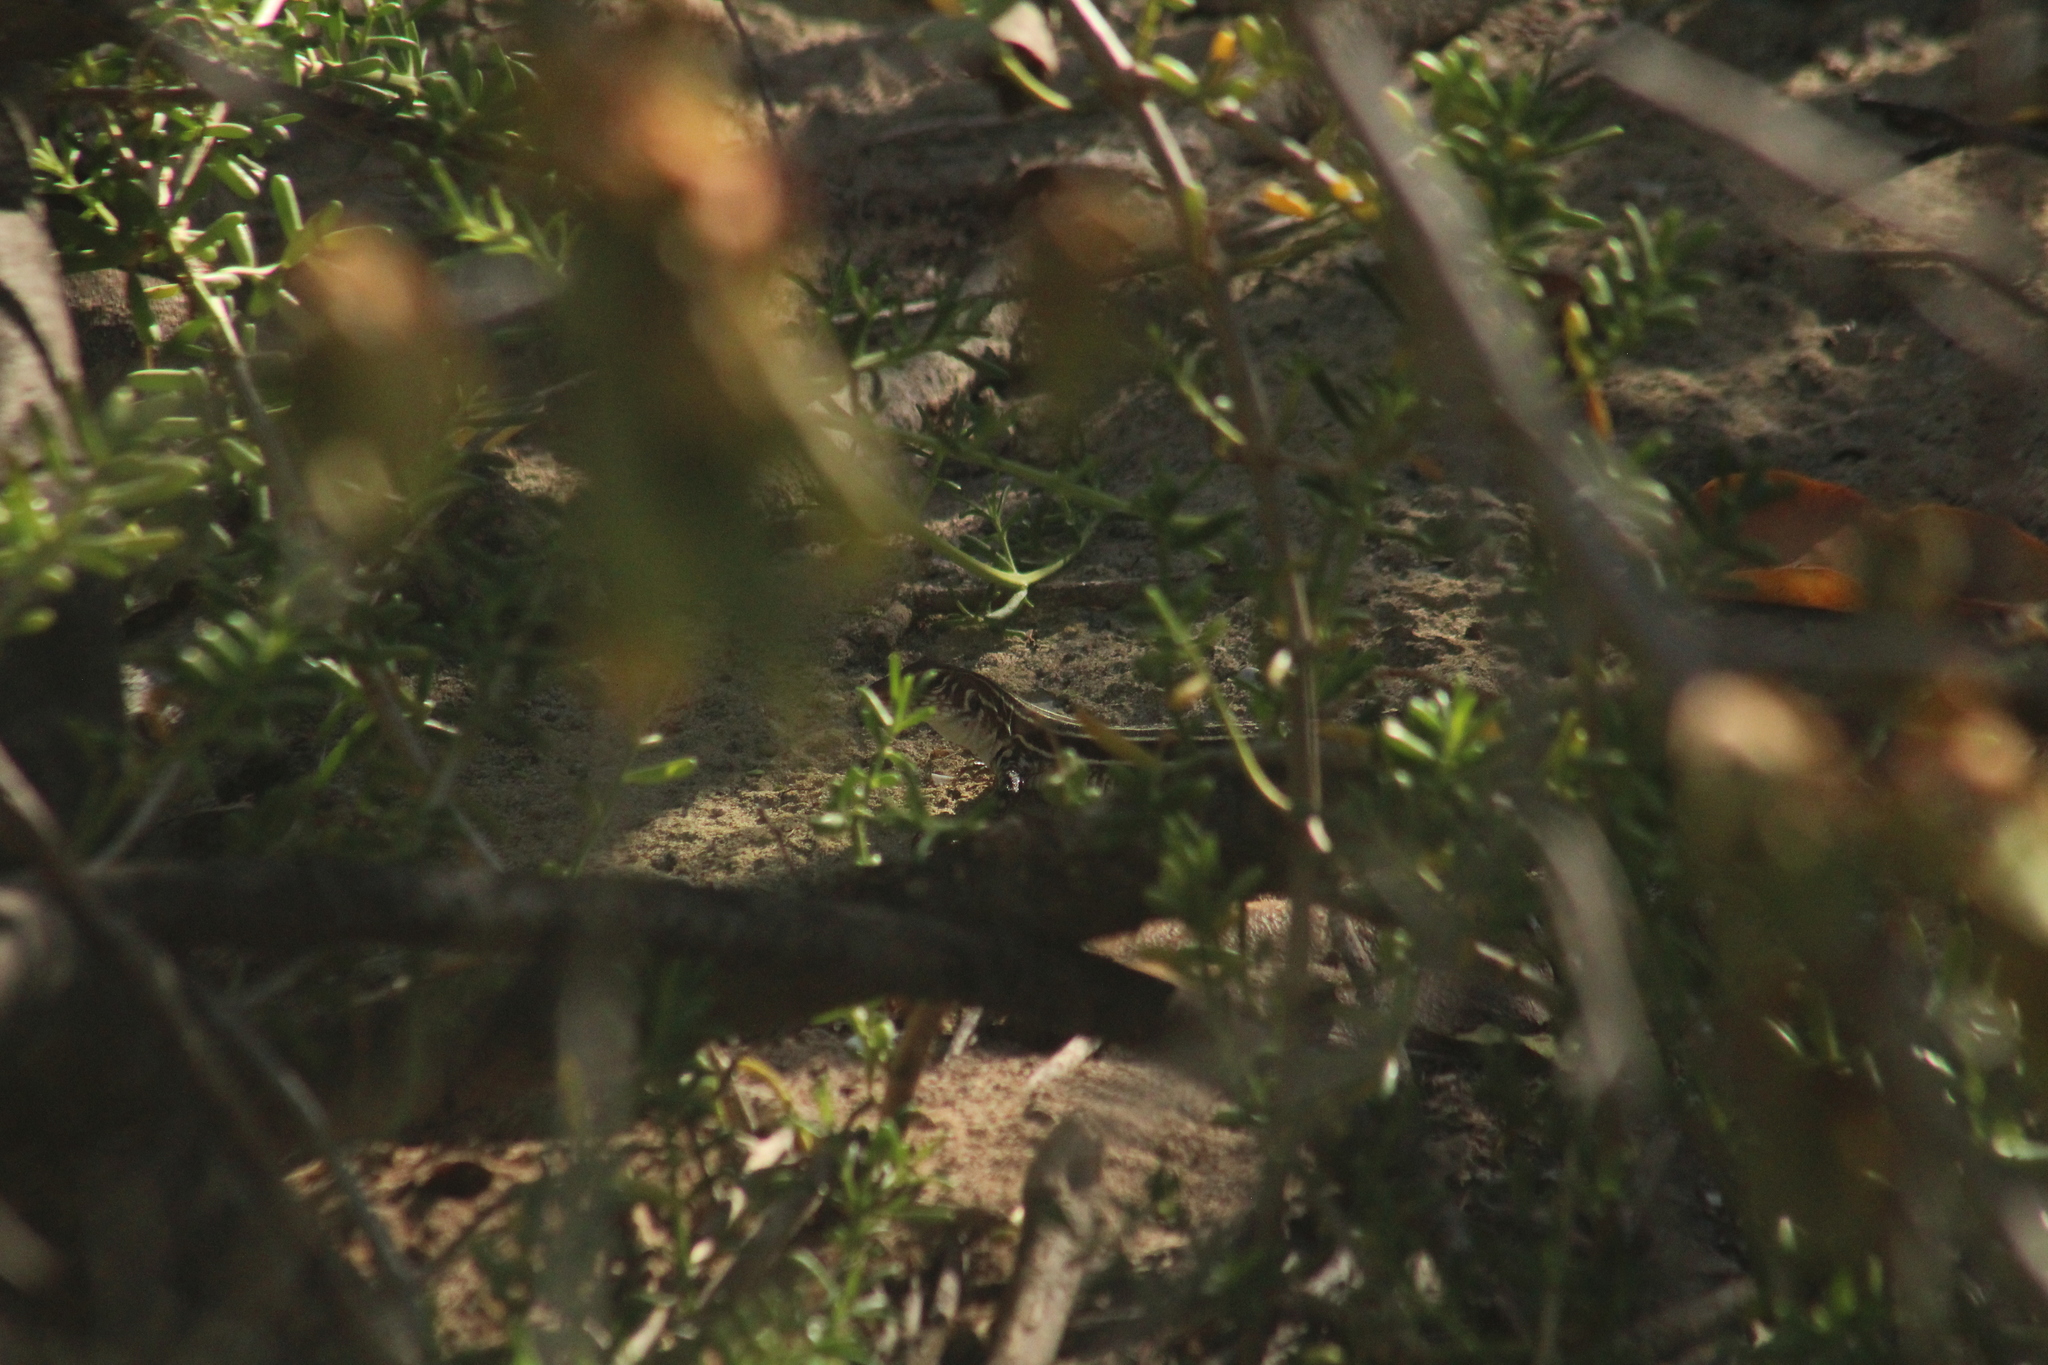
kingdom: Animalia
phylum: Chordata
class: Squamata
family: Teiidae
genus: Pholidoscelis
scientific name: Pholidoscelis plei
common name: Anguilla bank ameiva
